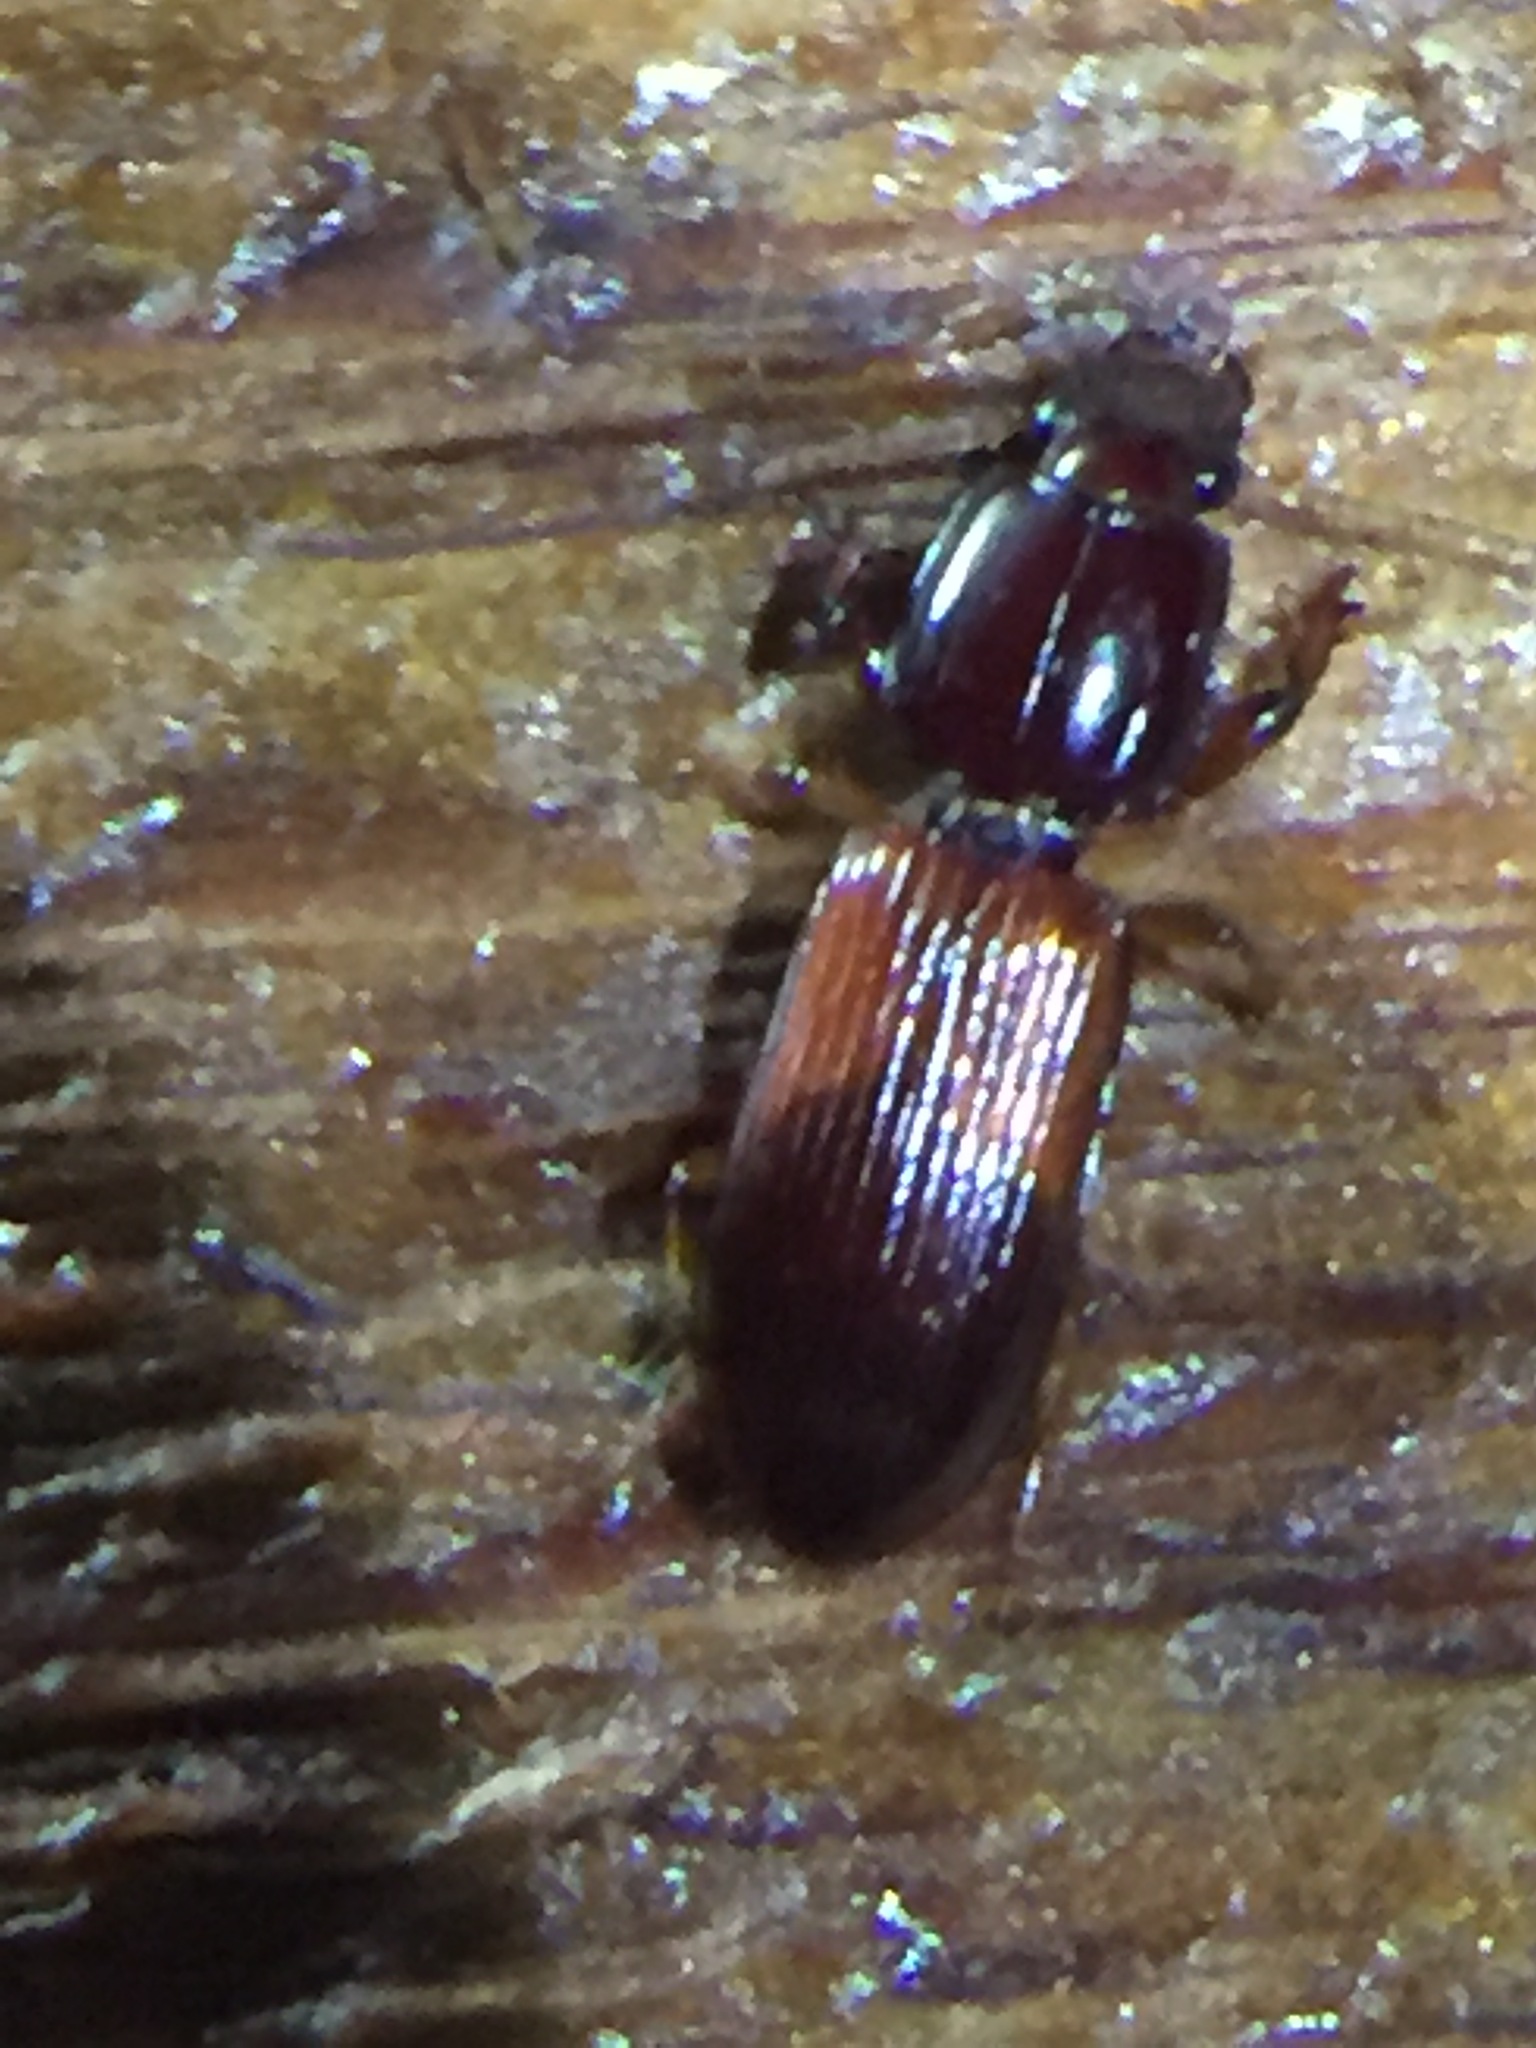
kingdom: Animalia
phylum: Arthropoda
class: Insecta
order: Coleoptera
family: Carabidae
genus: Clivina
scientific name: Clivina basalis
